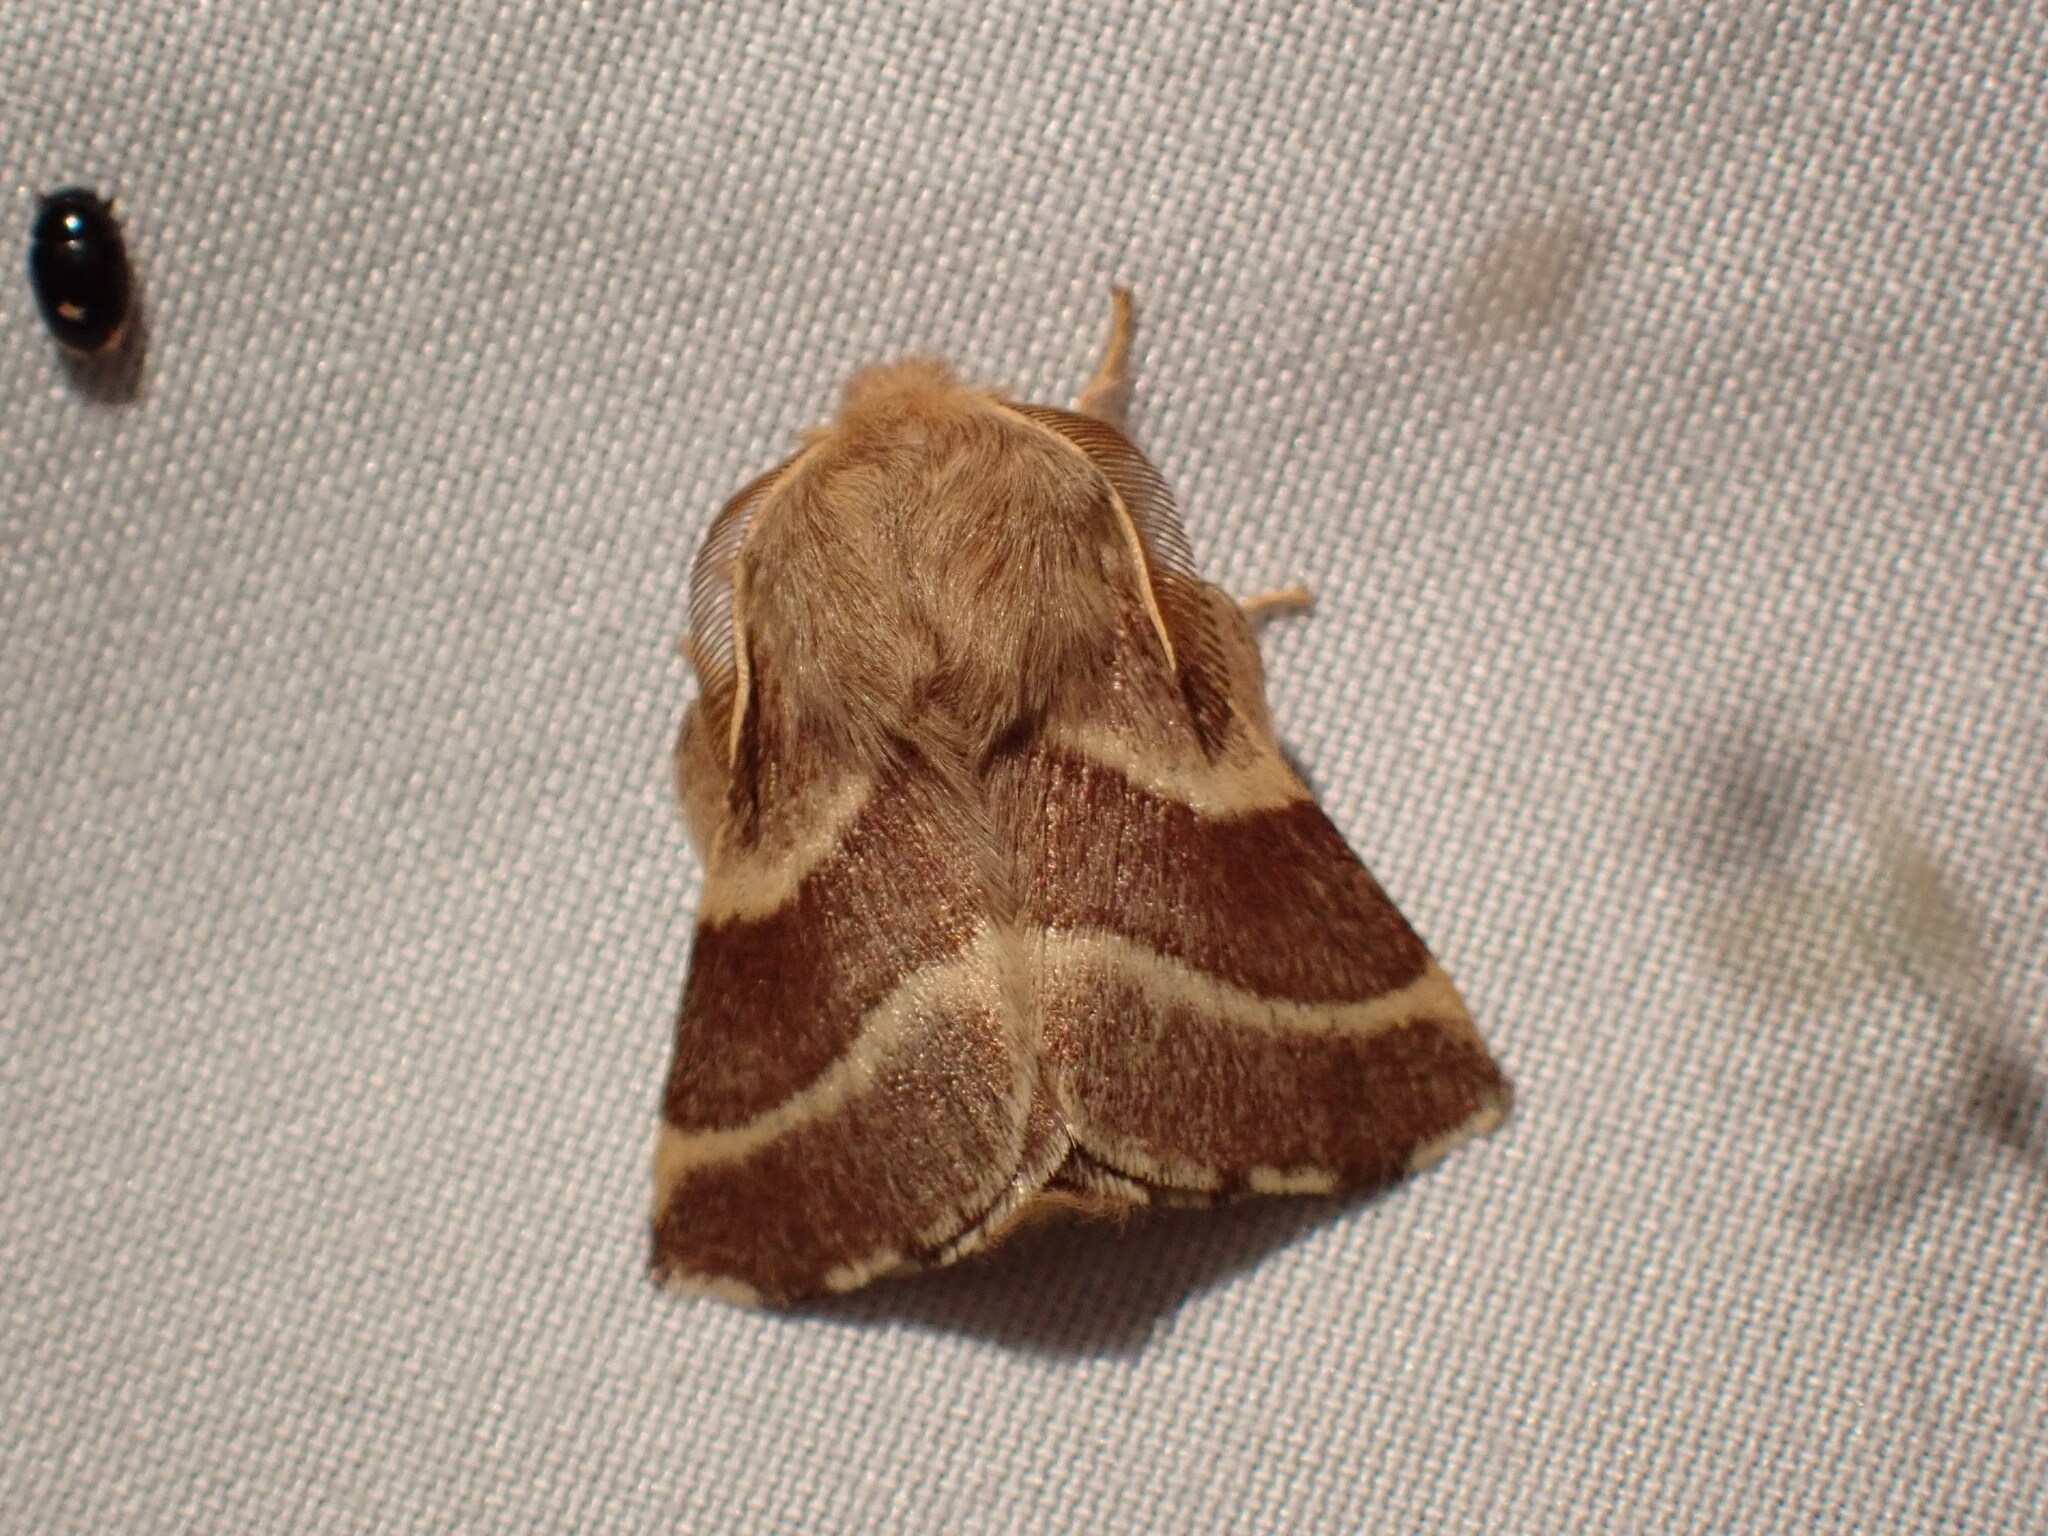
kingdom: Animalia
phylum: Arthropoda
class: Insecta
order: Lepidoptera
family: Lasiocampidae
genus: Malacosoma
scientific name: Malacosoma californica
